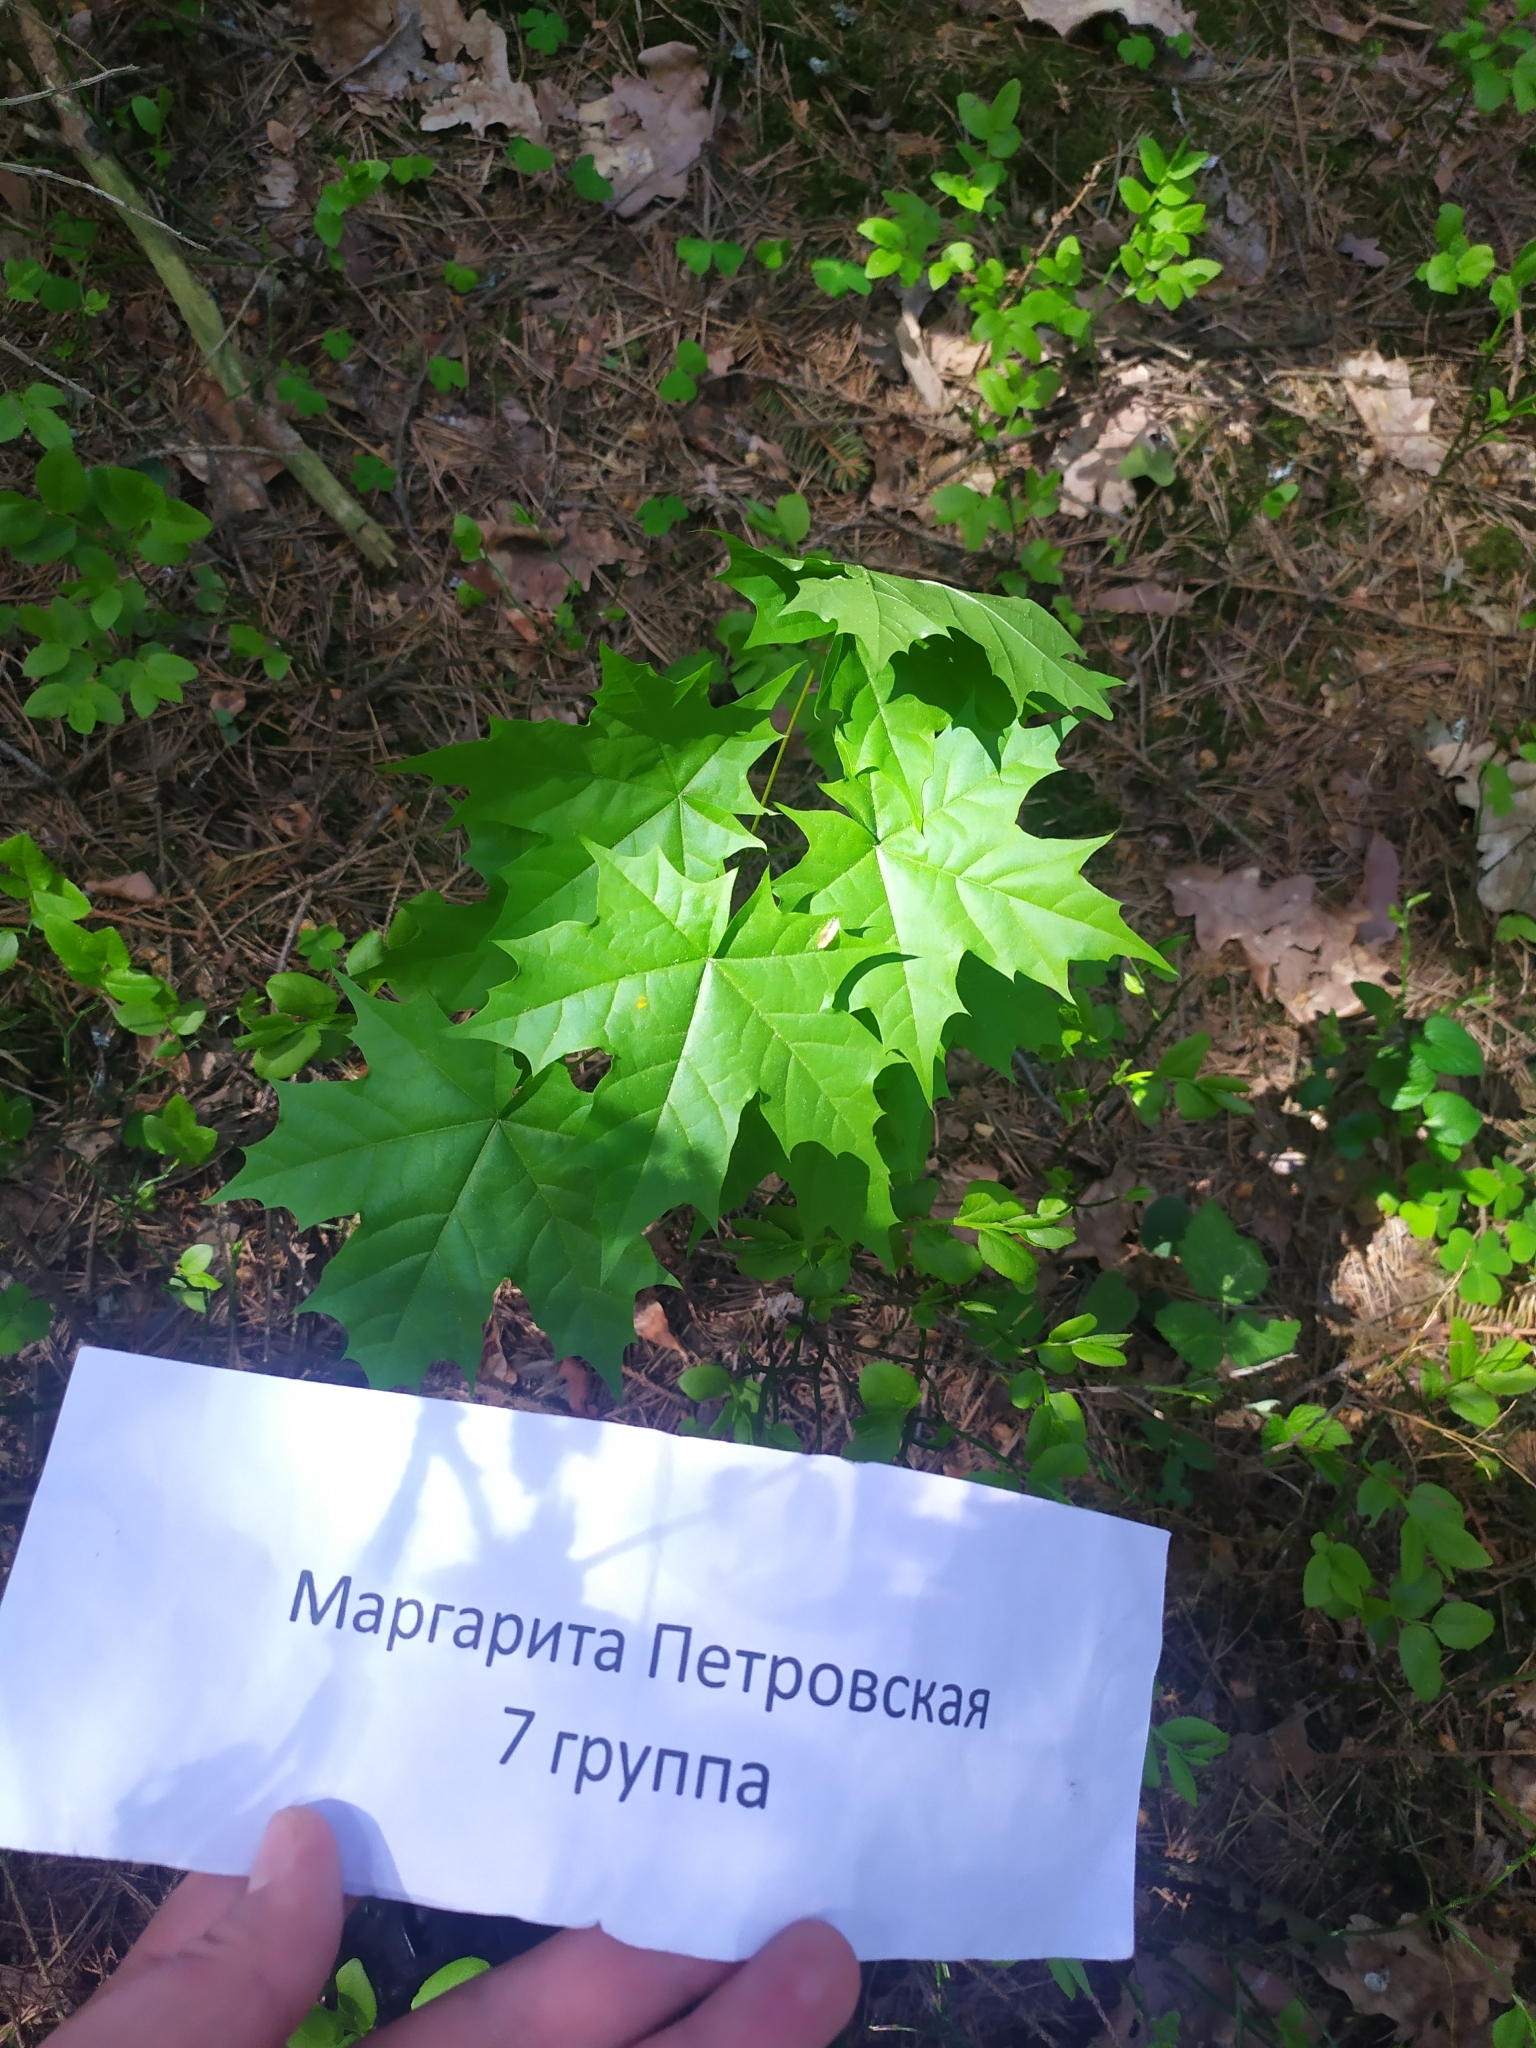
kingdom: Plantae
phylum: Tracheophyta
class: Magnoliopsida
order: Sapindales
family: Sapindaceae
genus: Acer
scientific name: Acer platanoides
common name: Norway maple
